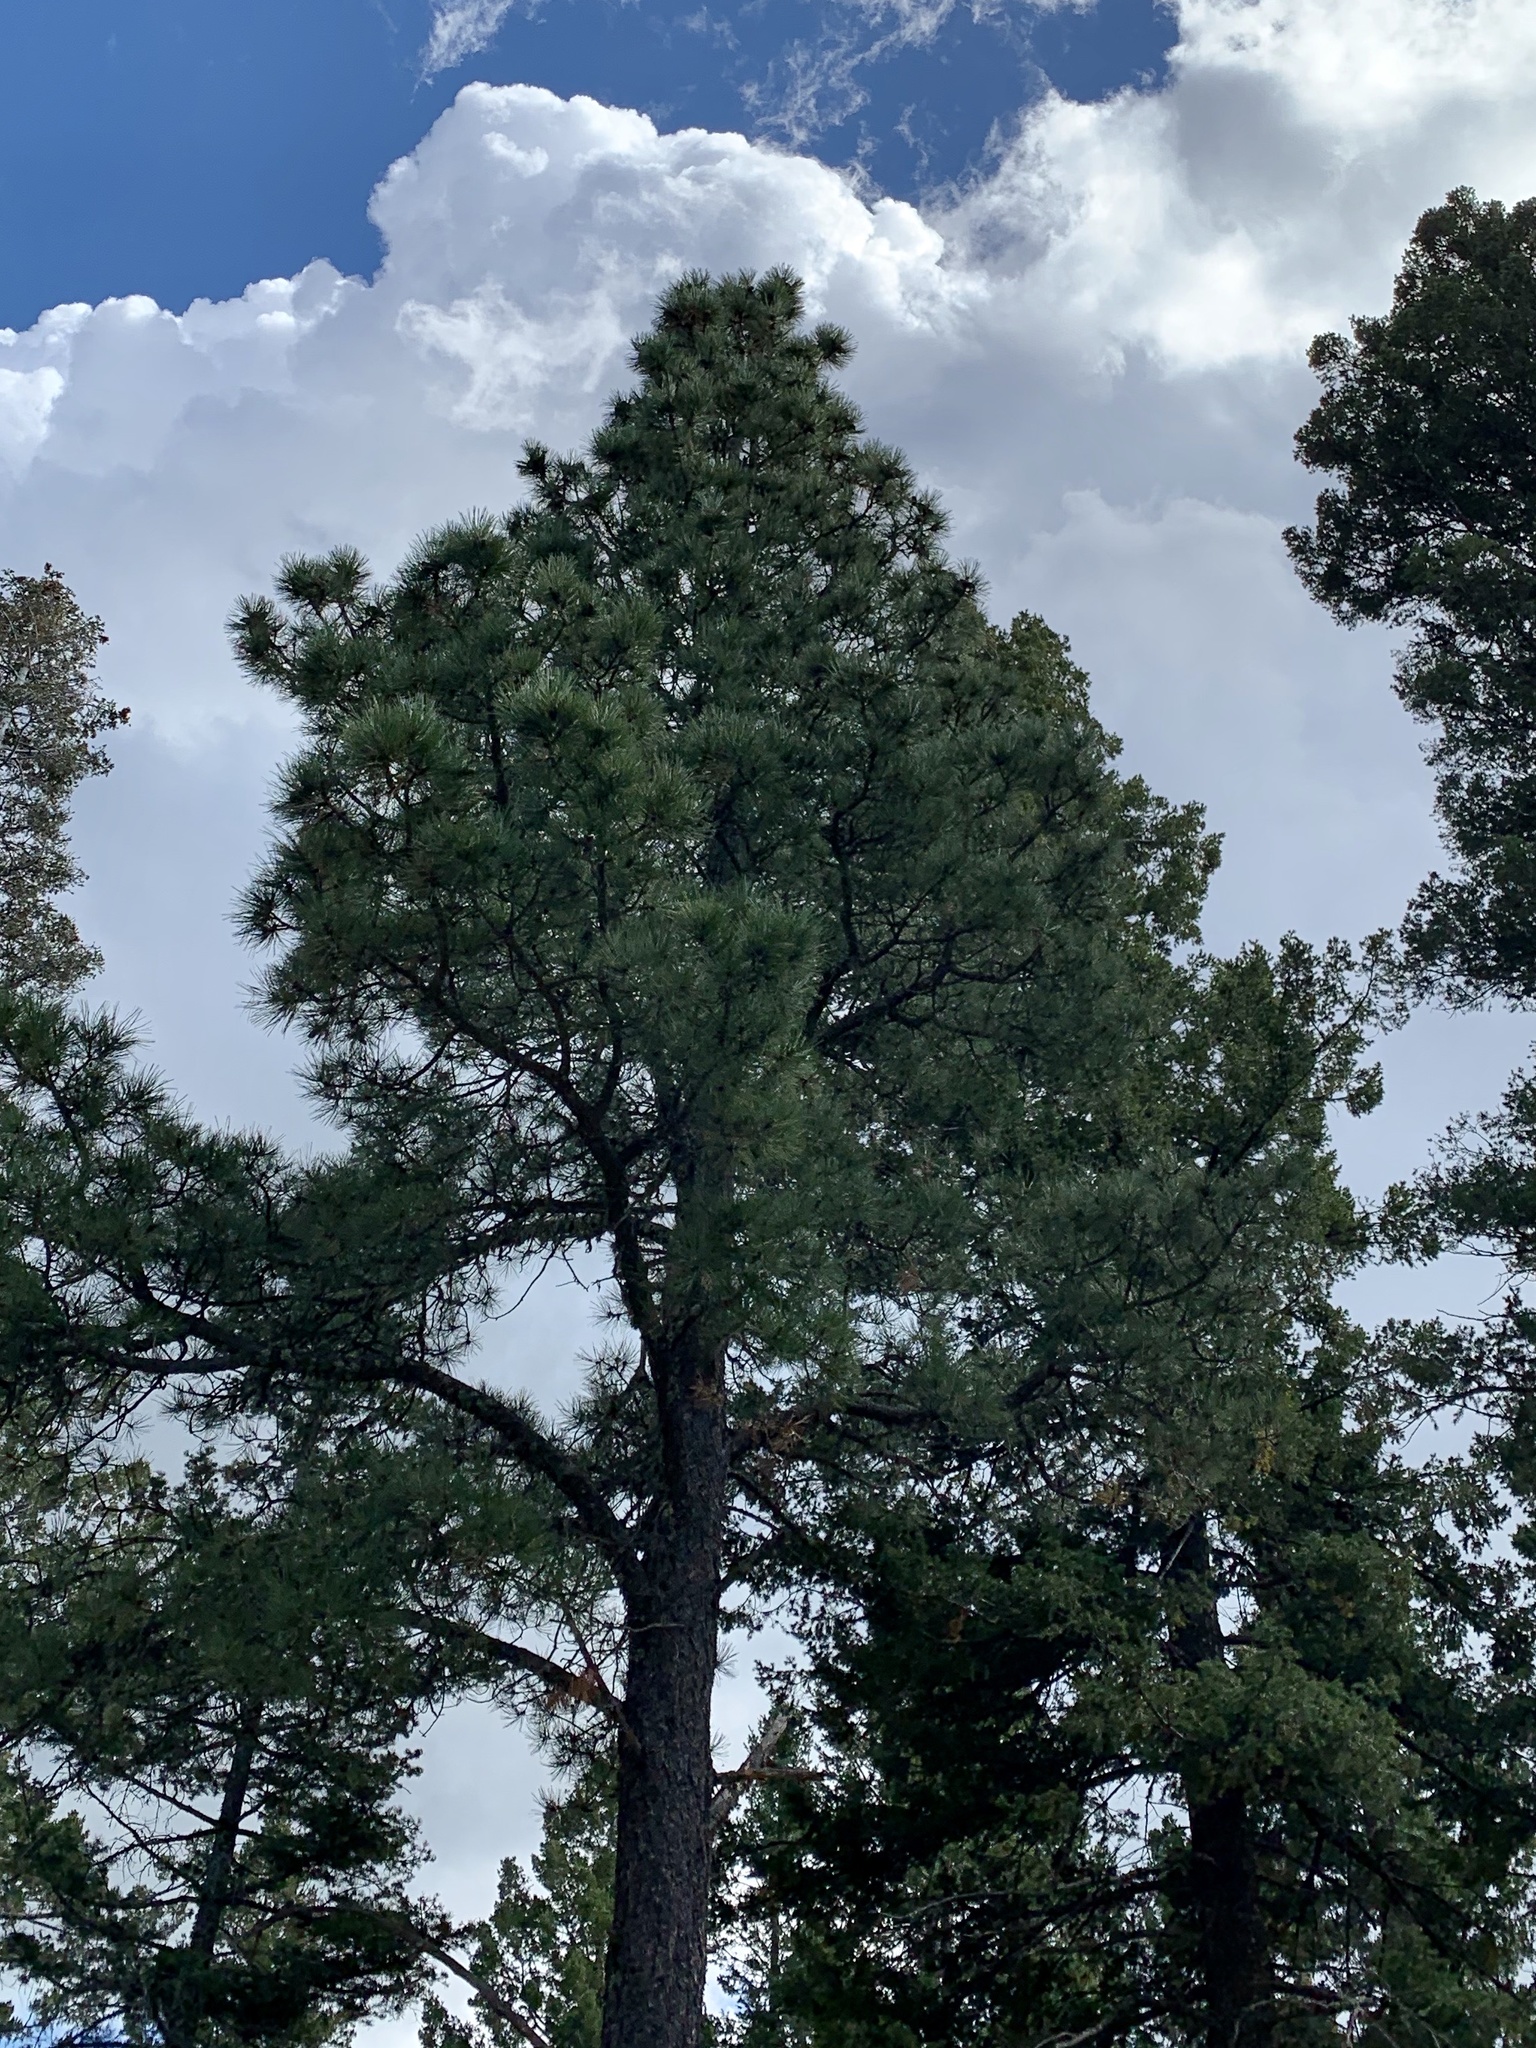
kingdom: Plantae
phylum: Tracheophyta
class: Pinopsida
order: Pinales
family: Pinaceae
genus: Pinus
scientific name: Pinus ponderosa
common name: Western yellow-pine
